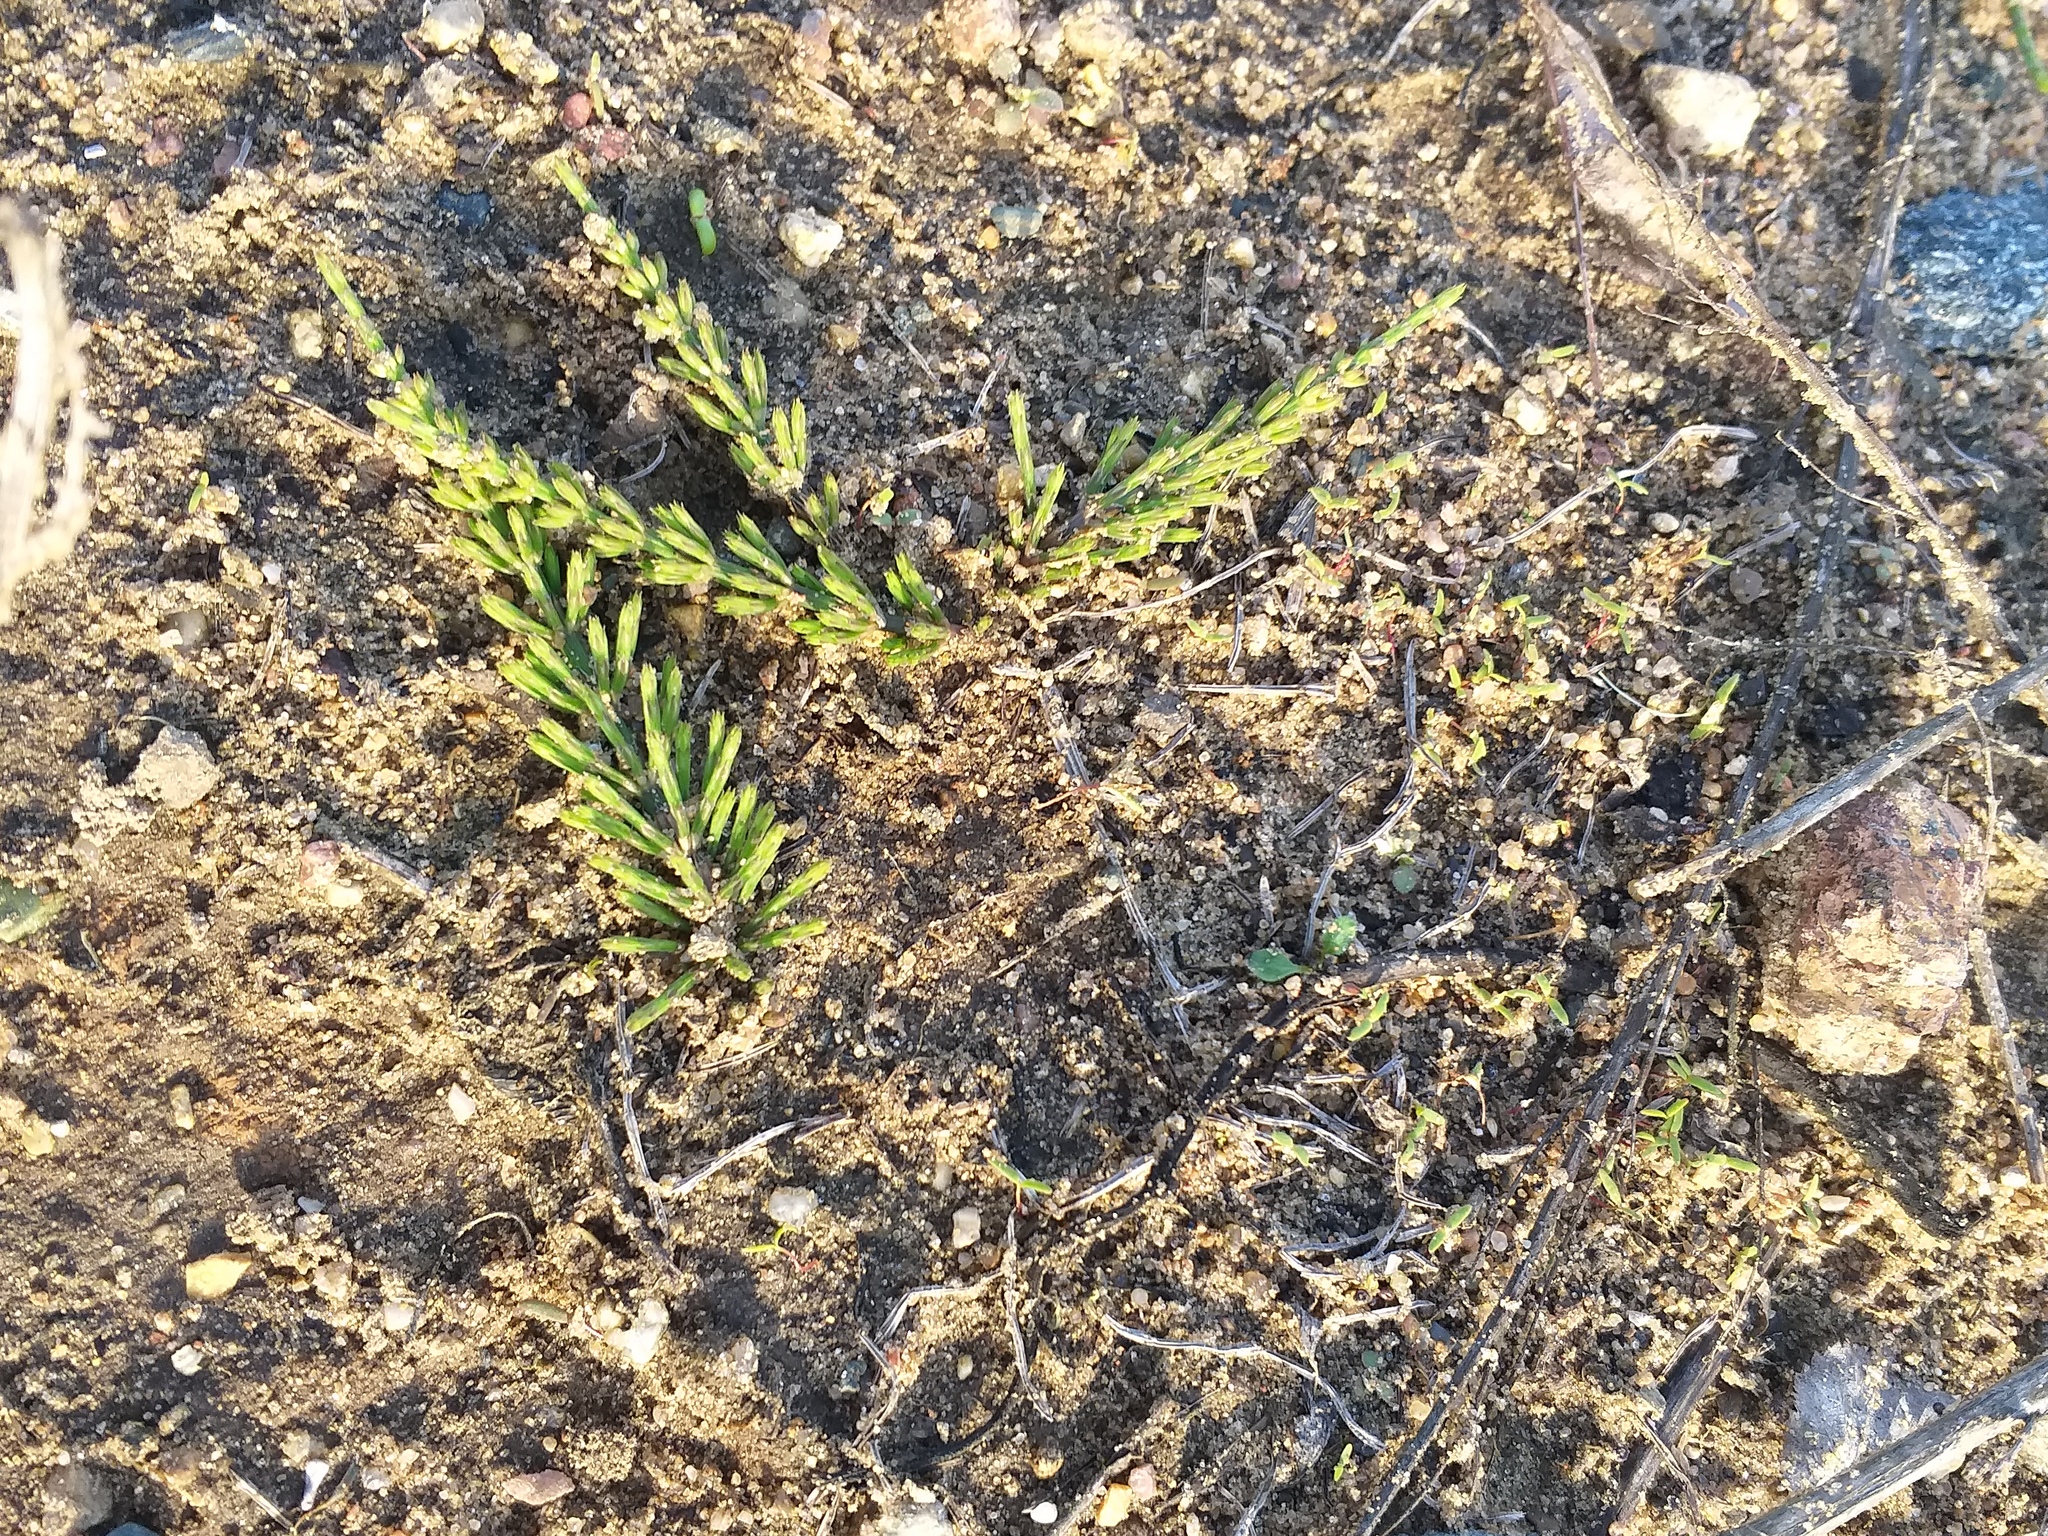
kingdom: Plantae
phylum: Tracheophyta
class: Polypodiopsida
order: Equisetales
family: Equisetaceae
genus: Equisetum
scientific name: Equisetum arvense
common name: Field horsetail
